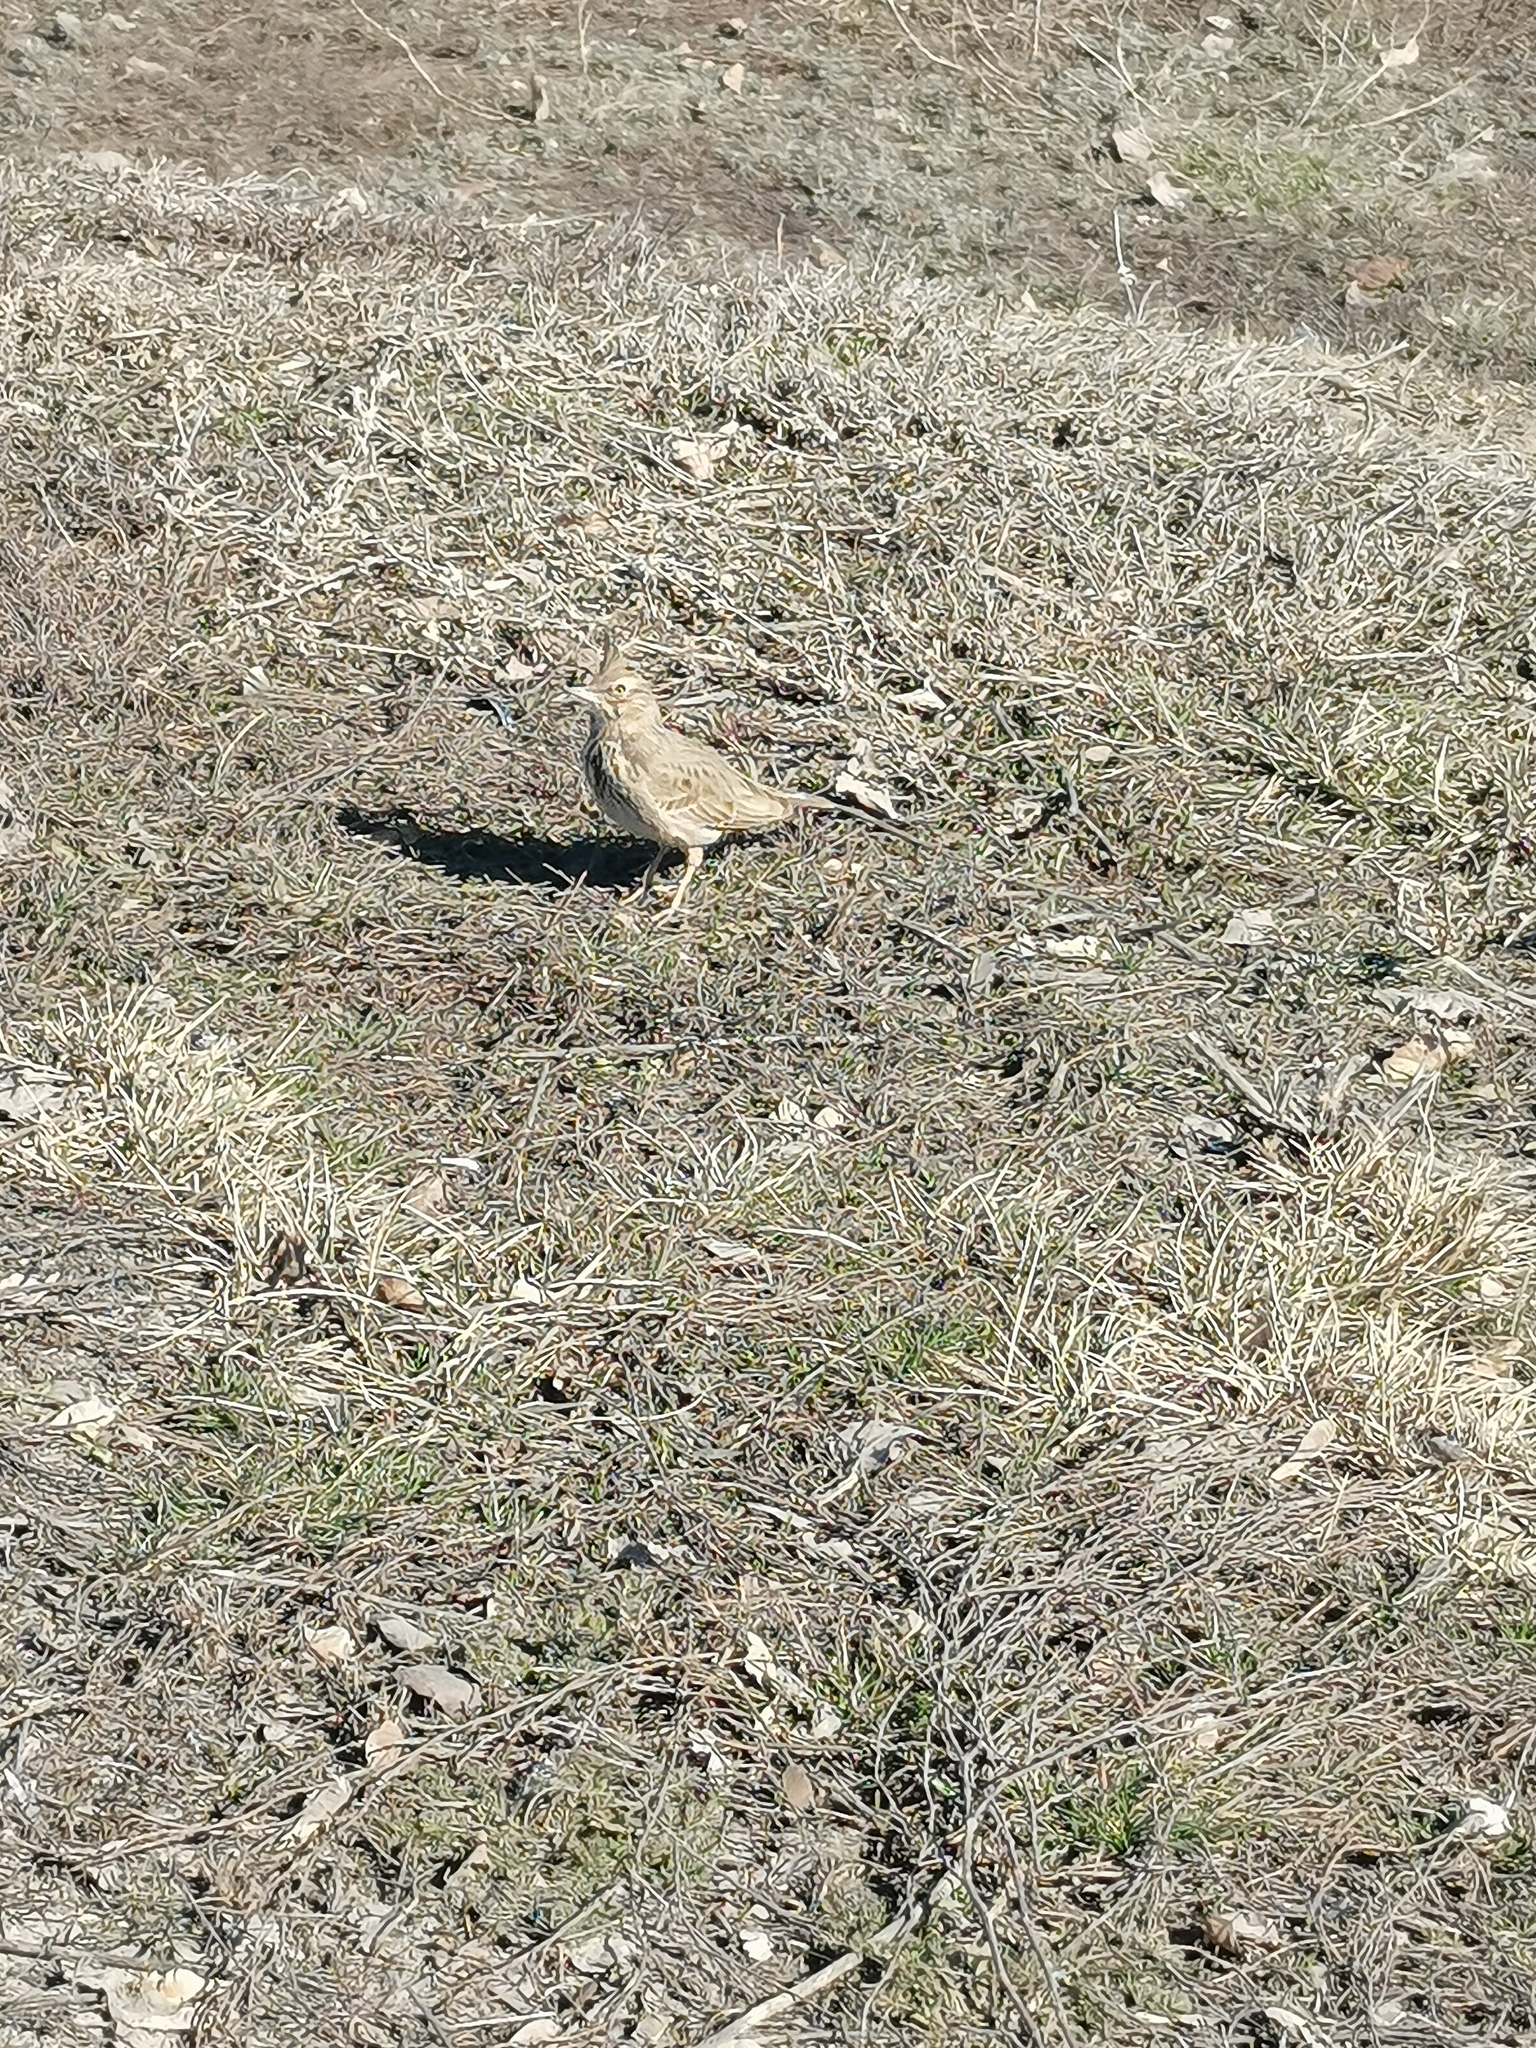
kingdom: Animalia
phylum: Chordata
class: Aves
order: Passeriformes
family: Alaudidae
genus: Galerida
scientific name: Galerida cristata
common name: Crested lark
